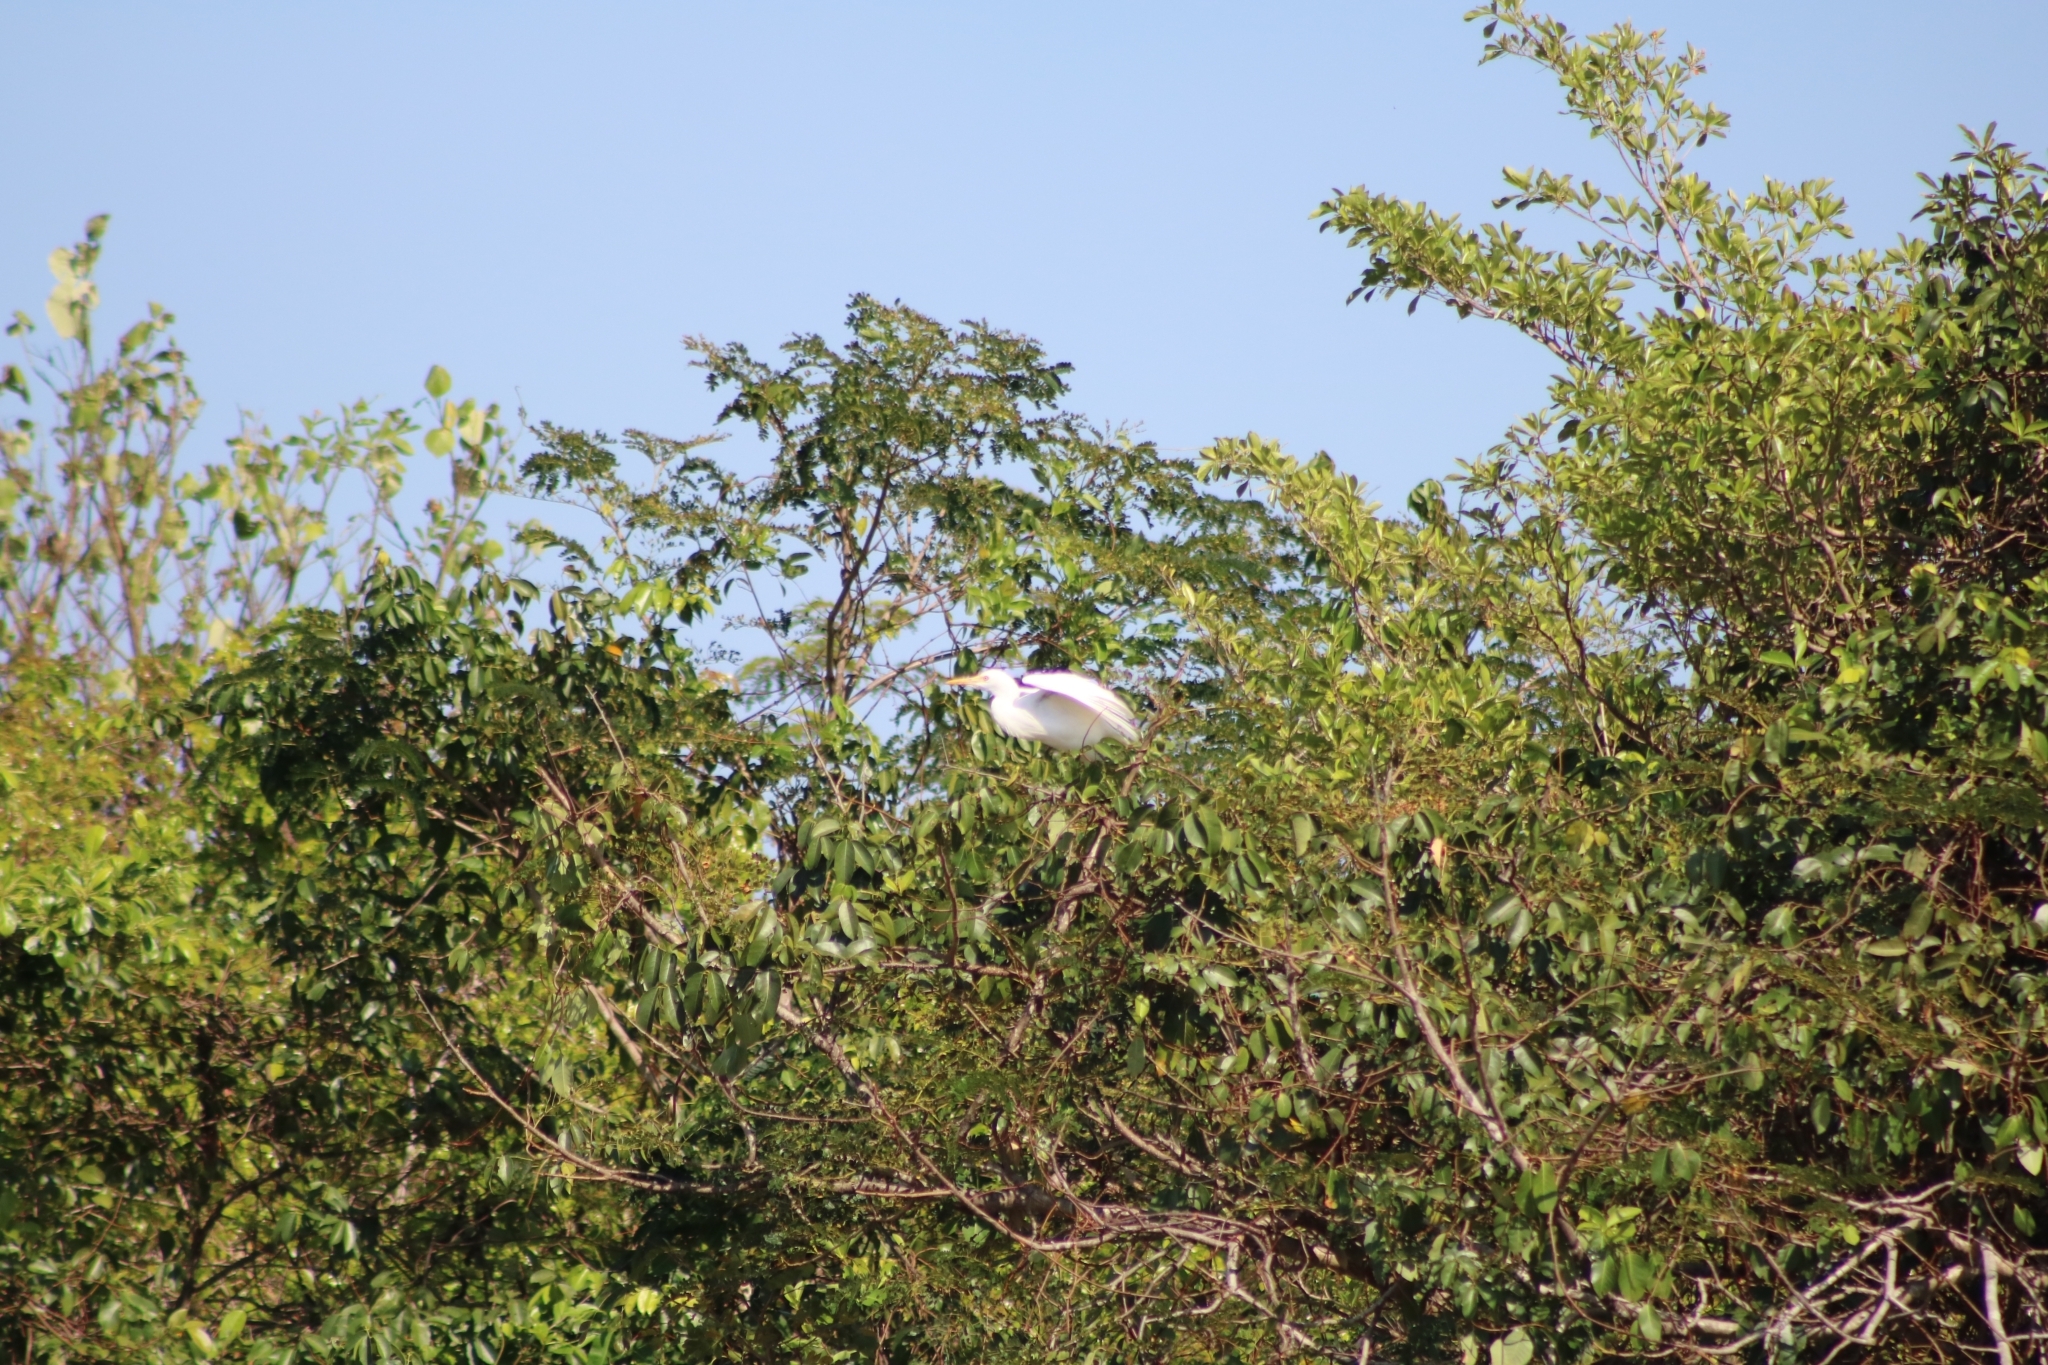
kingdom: Animalia
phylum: Chordata
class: Aves
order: Pelecaniformes
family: Ardeidae
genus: Bubulcus
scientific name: Bubulcus coromandus
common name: Eastern cattle egret
